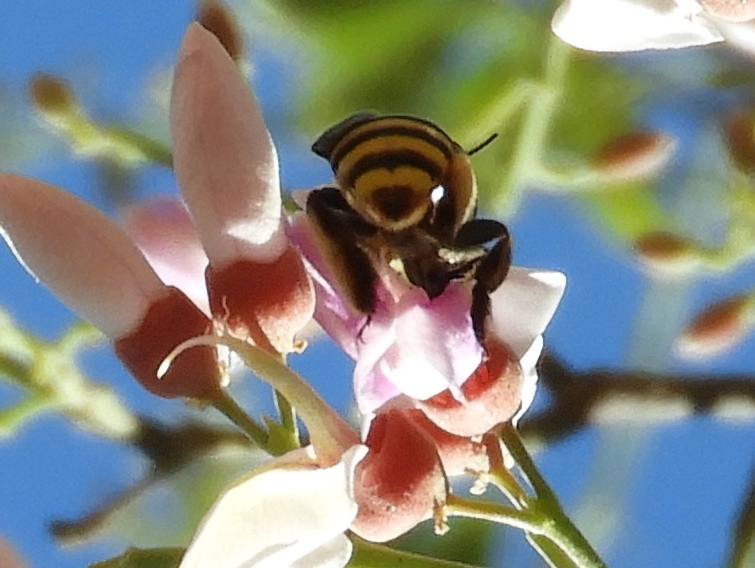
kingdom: Animalia
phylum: Arthropoda
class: Insecta
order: Hymenoptera
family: Apidae
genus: Centris
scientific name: Centris
